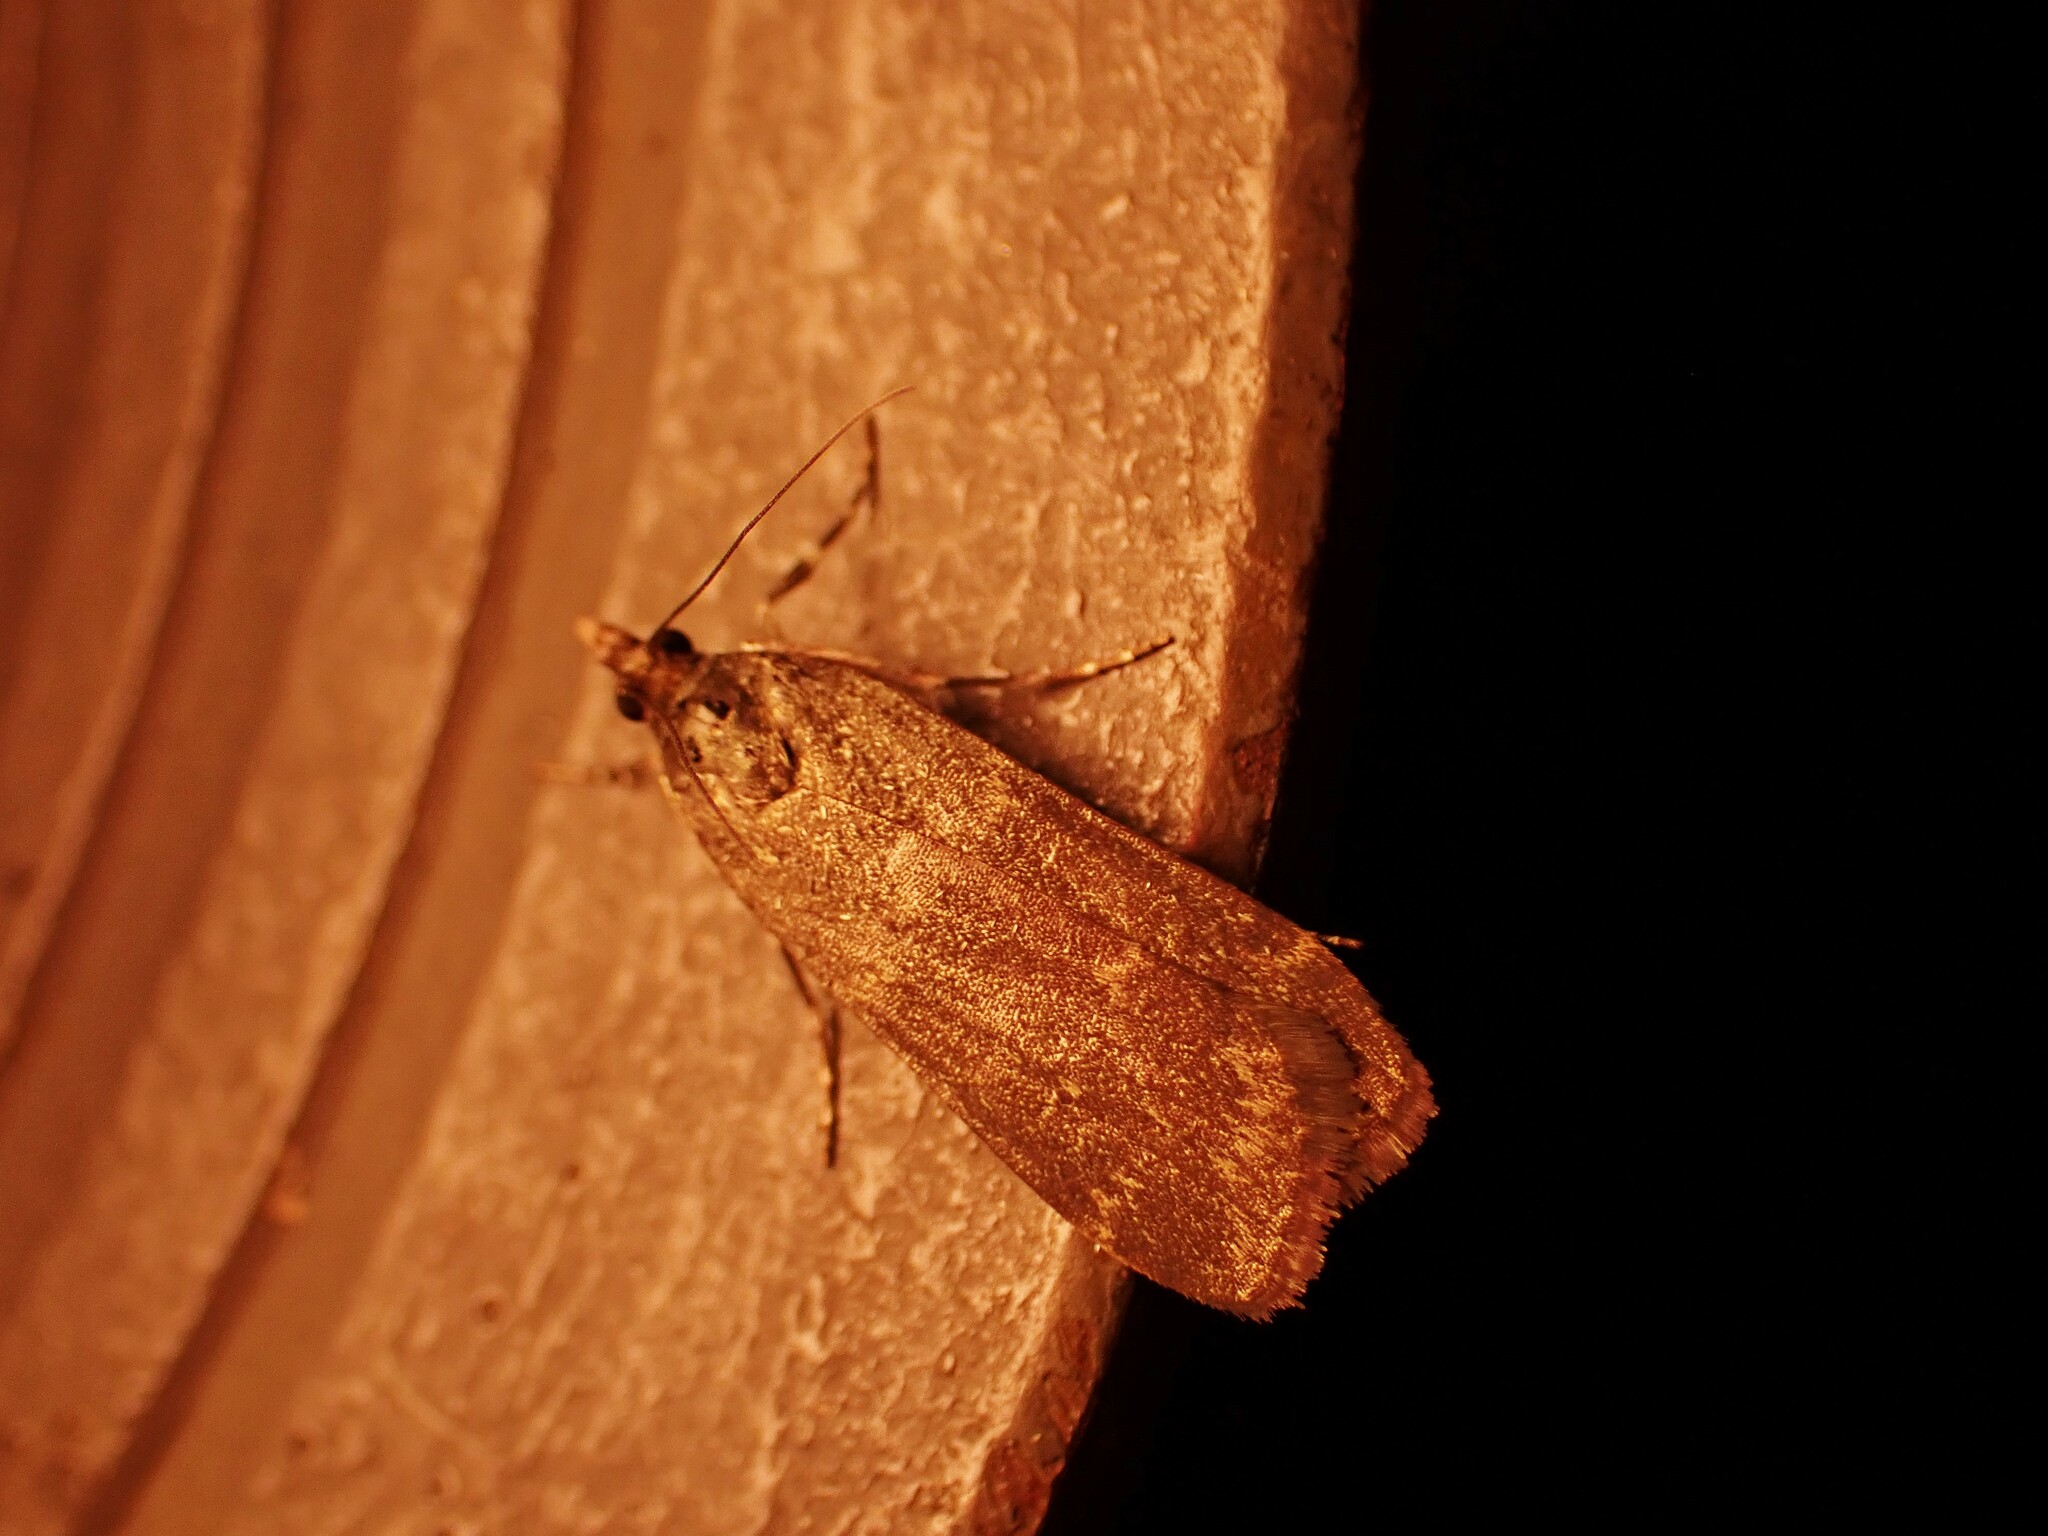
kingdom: Animalia
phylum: Arthropoda
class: Insecta
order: Lepidoptera
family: Crambidae
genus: Eudonia
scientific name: Eudonia cataxesta
